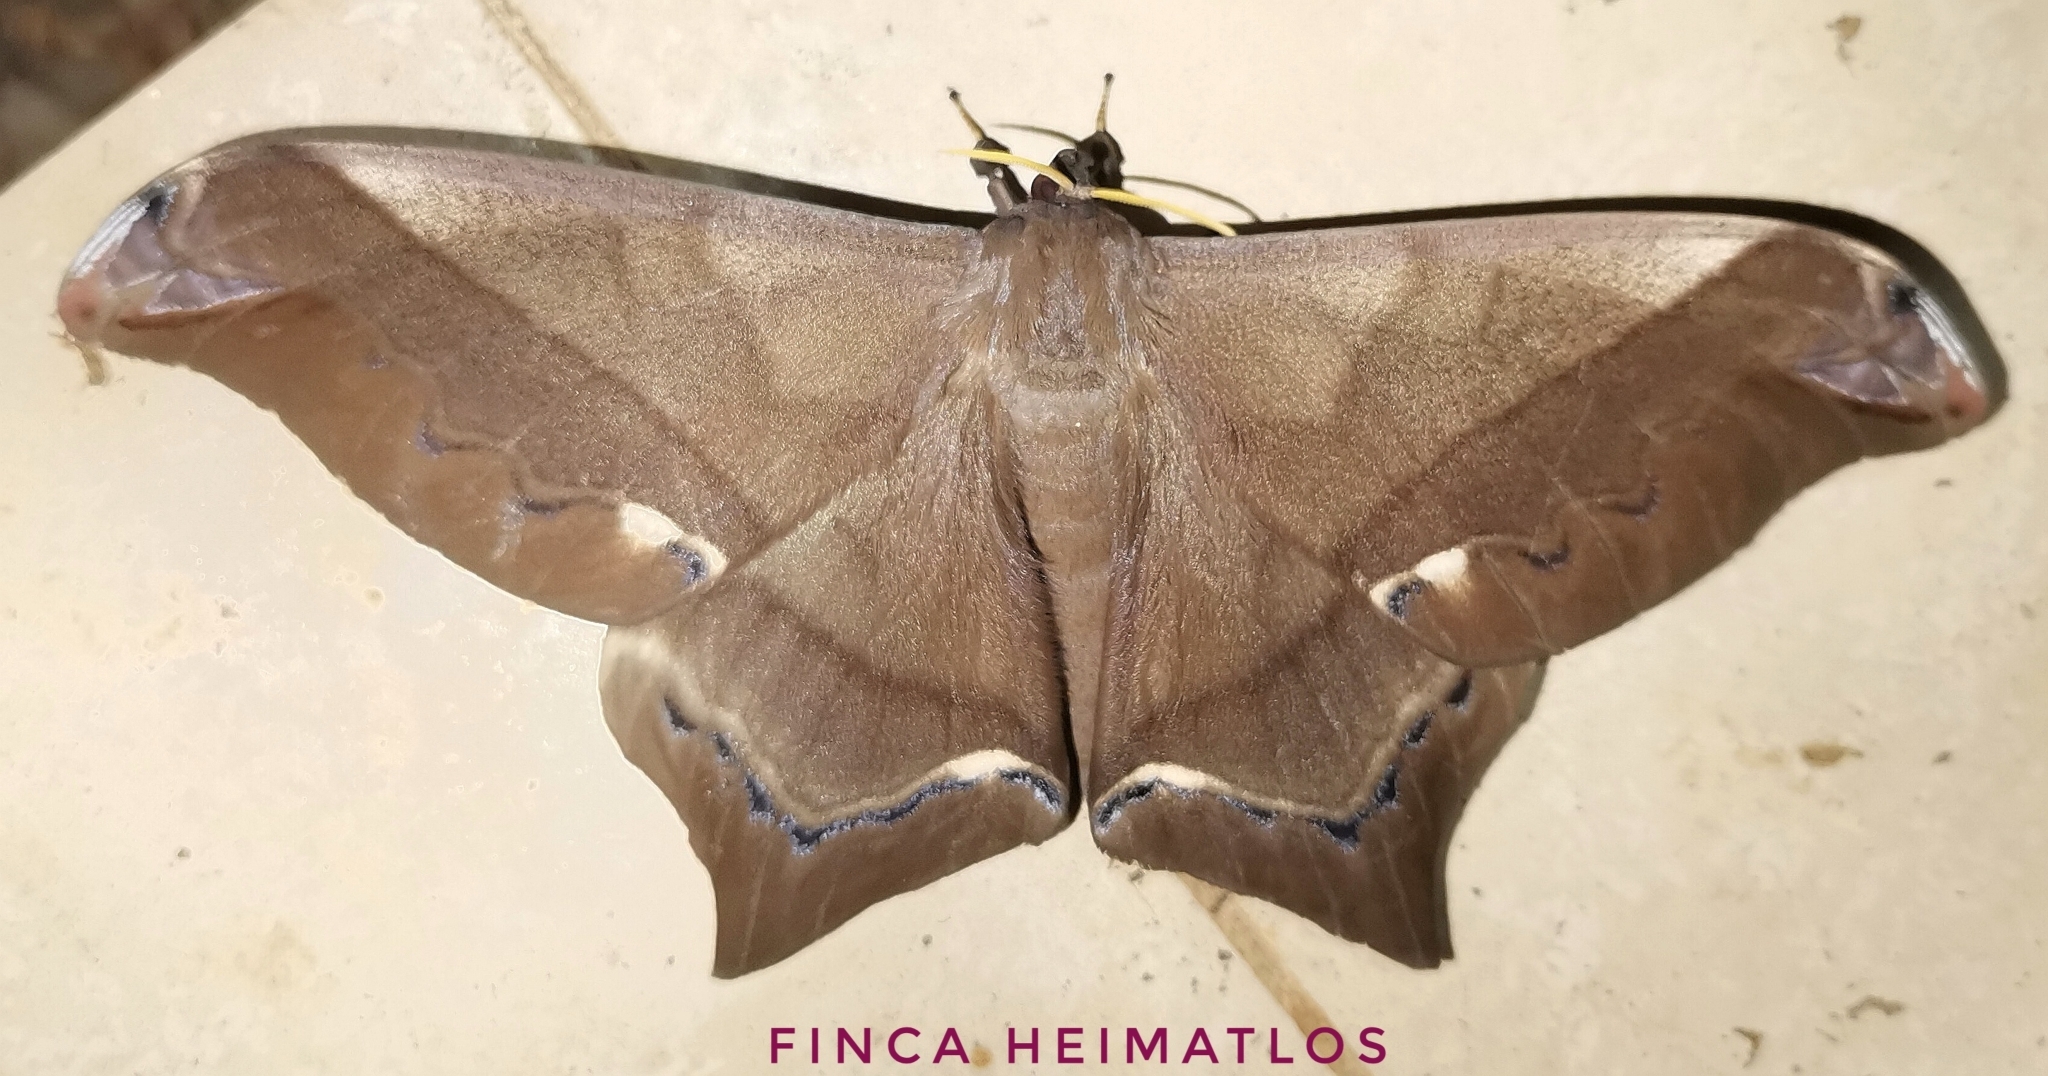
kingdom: Animalia
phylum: Arthropoda
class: Insecta
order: Lepidoptera
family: Saturniidae
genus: Arsenura
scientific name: Arsenura albopicta
